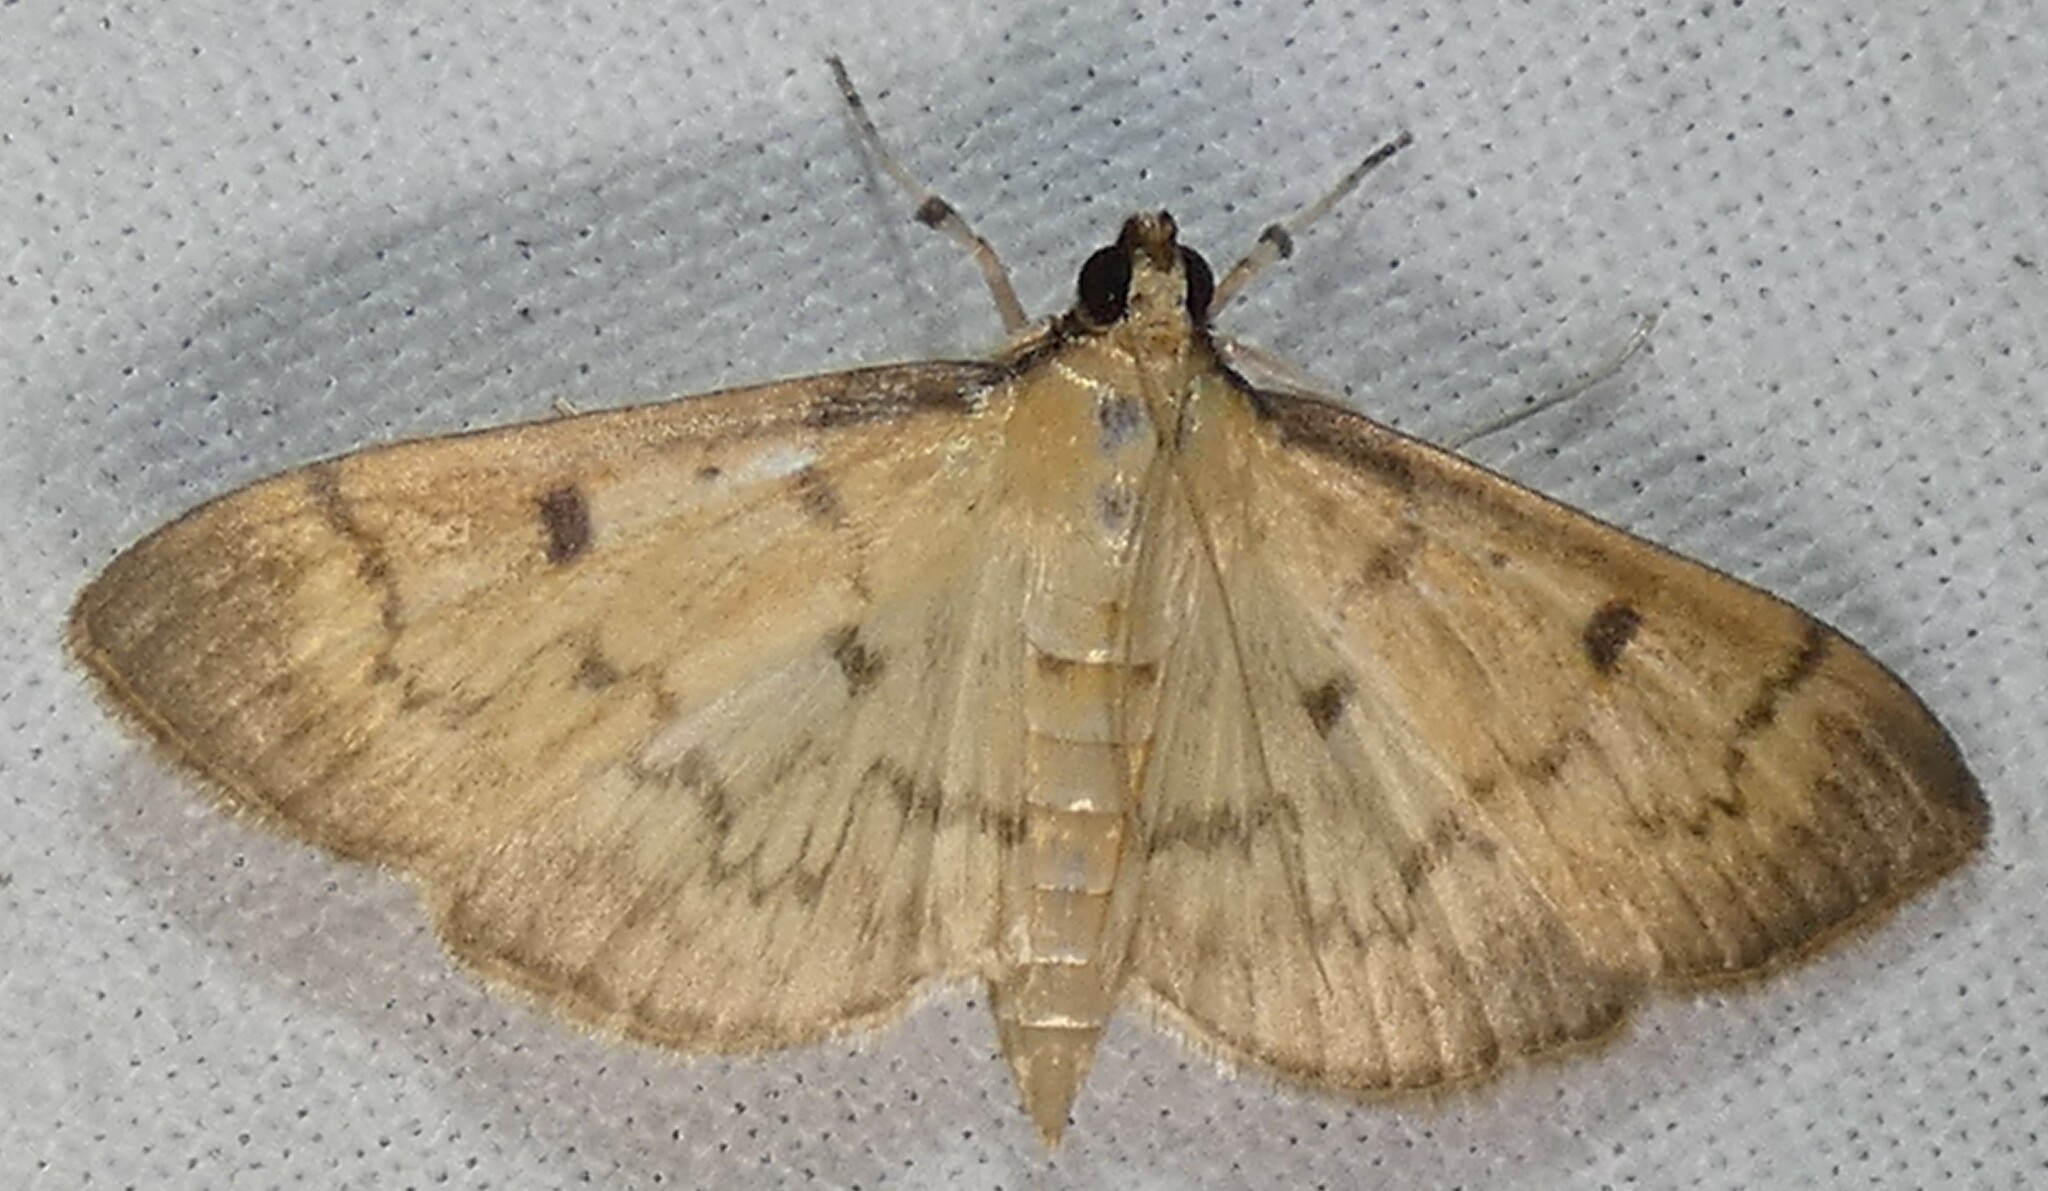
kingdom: Animalia
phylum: Arthropoda
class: Insecta
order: Lepidoptera
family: Crambidae
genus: Herpetogramma
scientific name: Herpetogramma fluctuosalis
